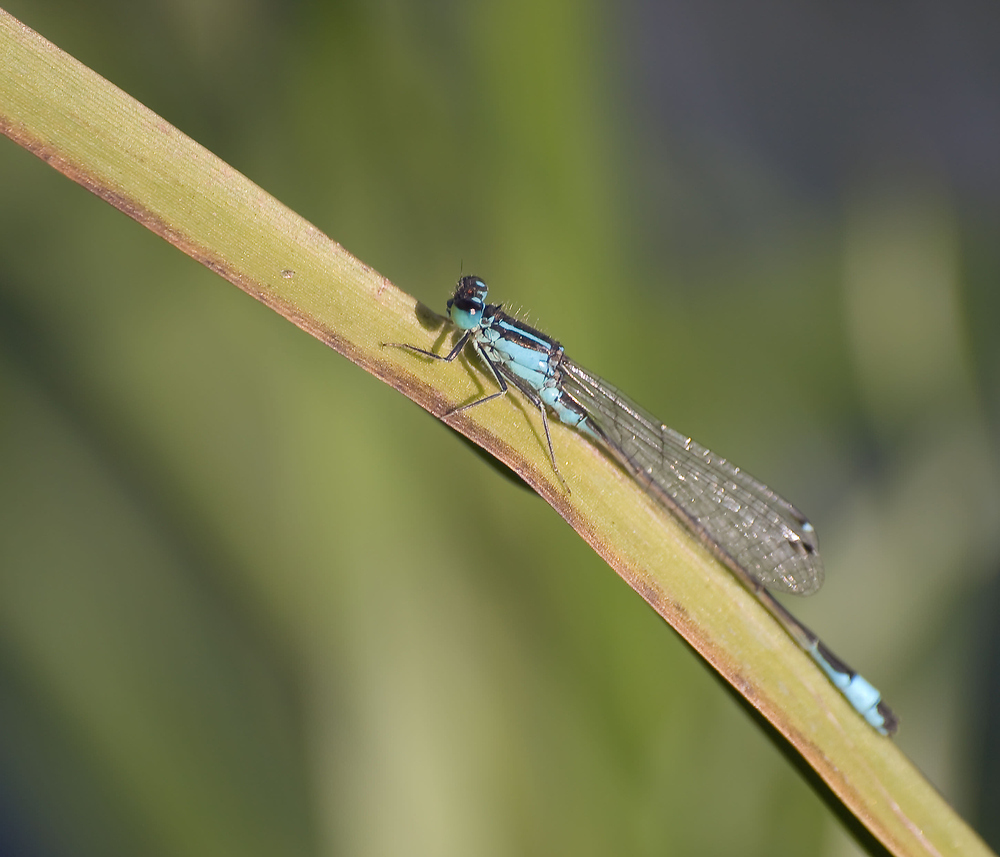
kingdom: Animalia
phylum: Arthropoda
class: Insecta
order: Odonata
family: Coenagrionidae
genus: Ischnura
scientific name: Ischnura elegans
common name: Blue-tailed damselfly
